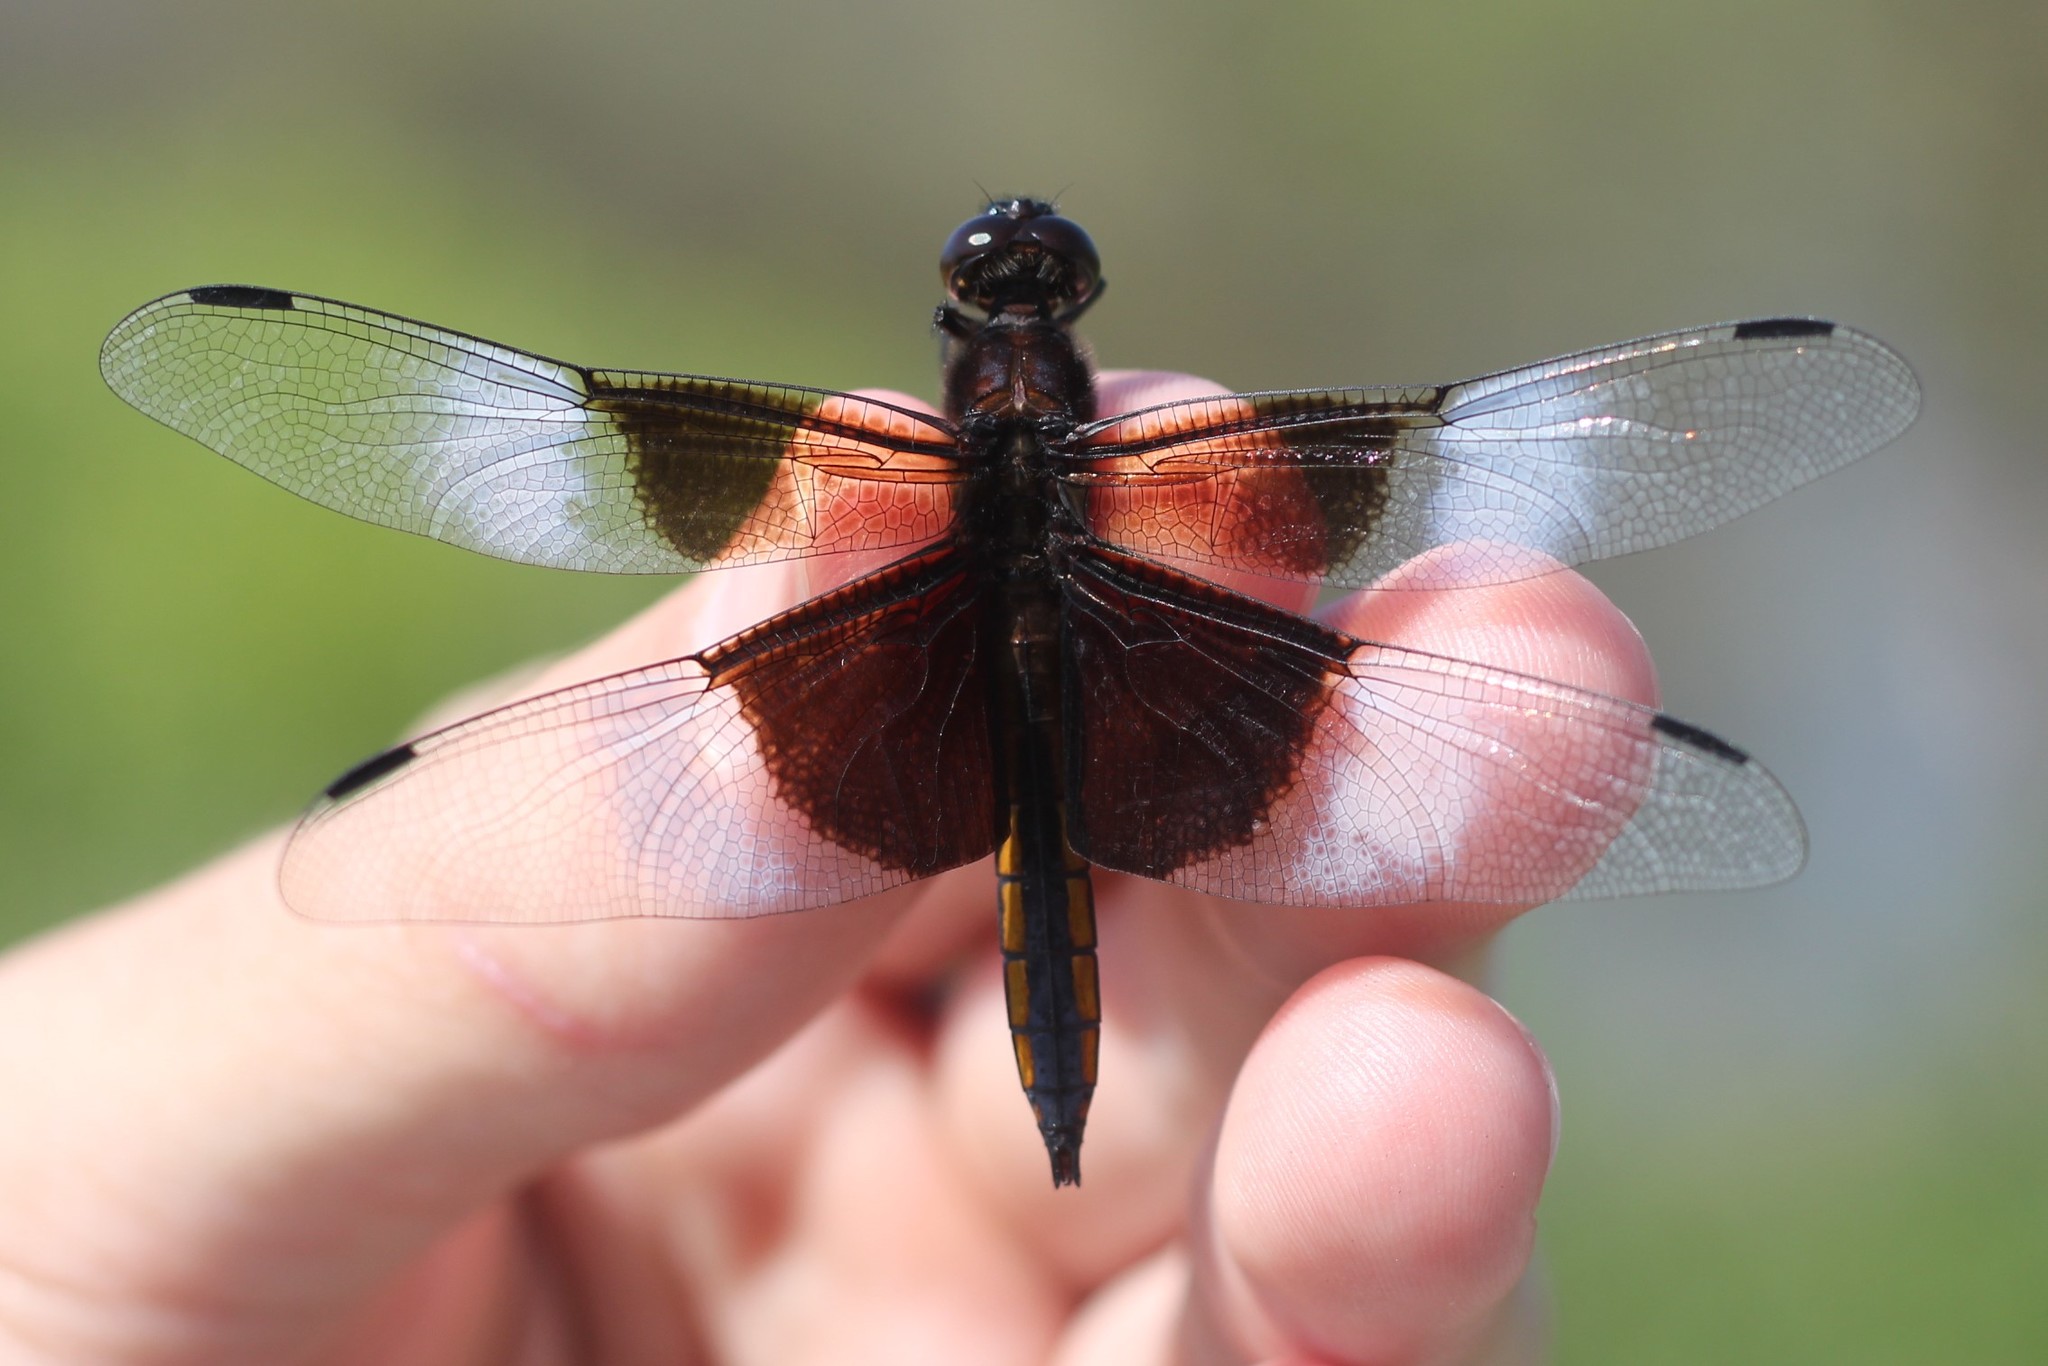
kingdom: Animalia
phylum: Arthropoda
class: Insecta
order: Odonata
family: Libellulidae
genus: Libellula
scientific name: Libellula luctuosa
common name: Widow skimmer
